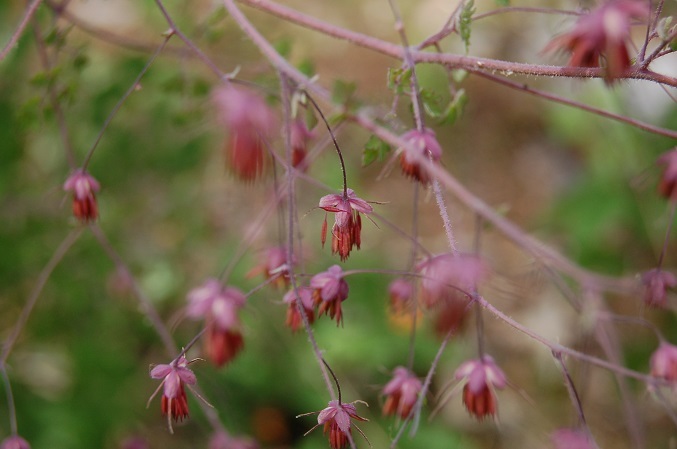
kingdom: Plantae
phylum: Tracheophyta
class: Magnoliopsida
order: Ranunculales
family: Ranunculaceae
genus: Thalictrum
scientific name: Thalictrum guatemalense
